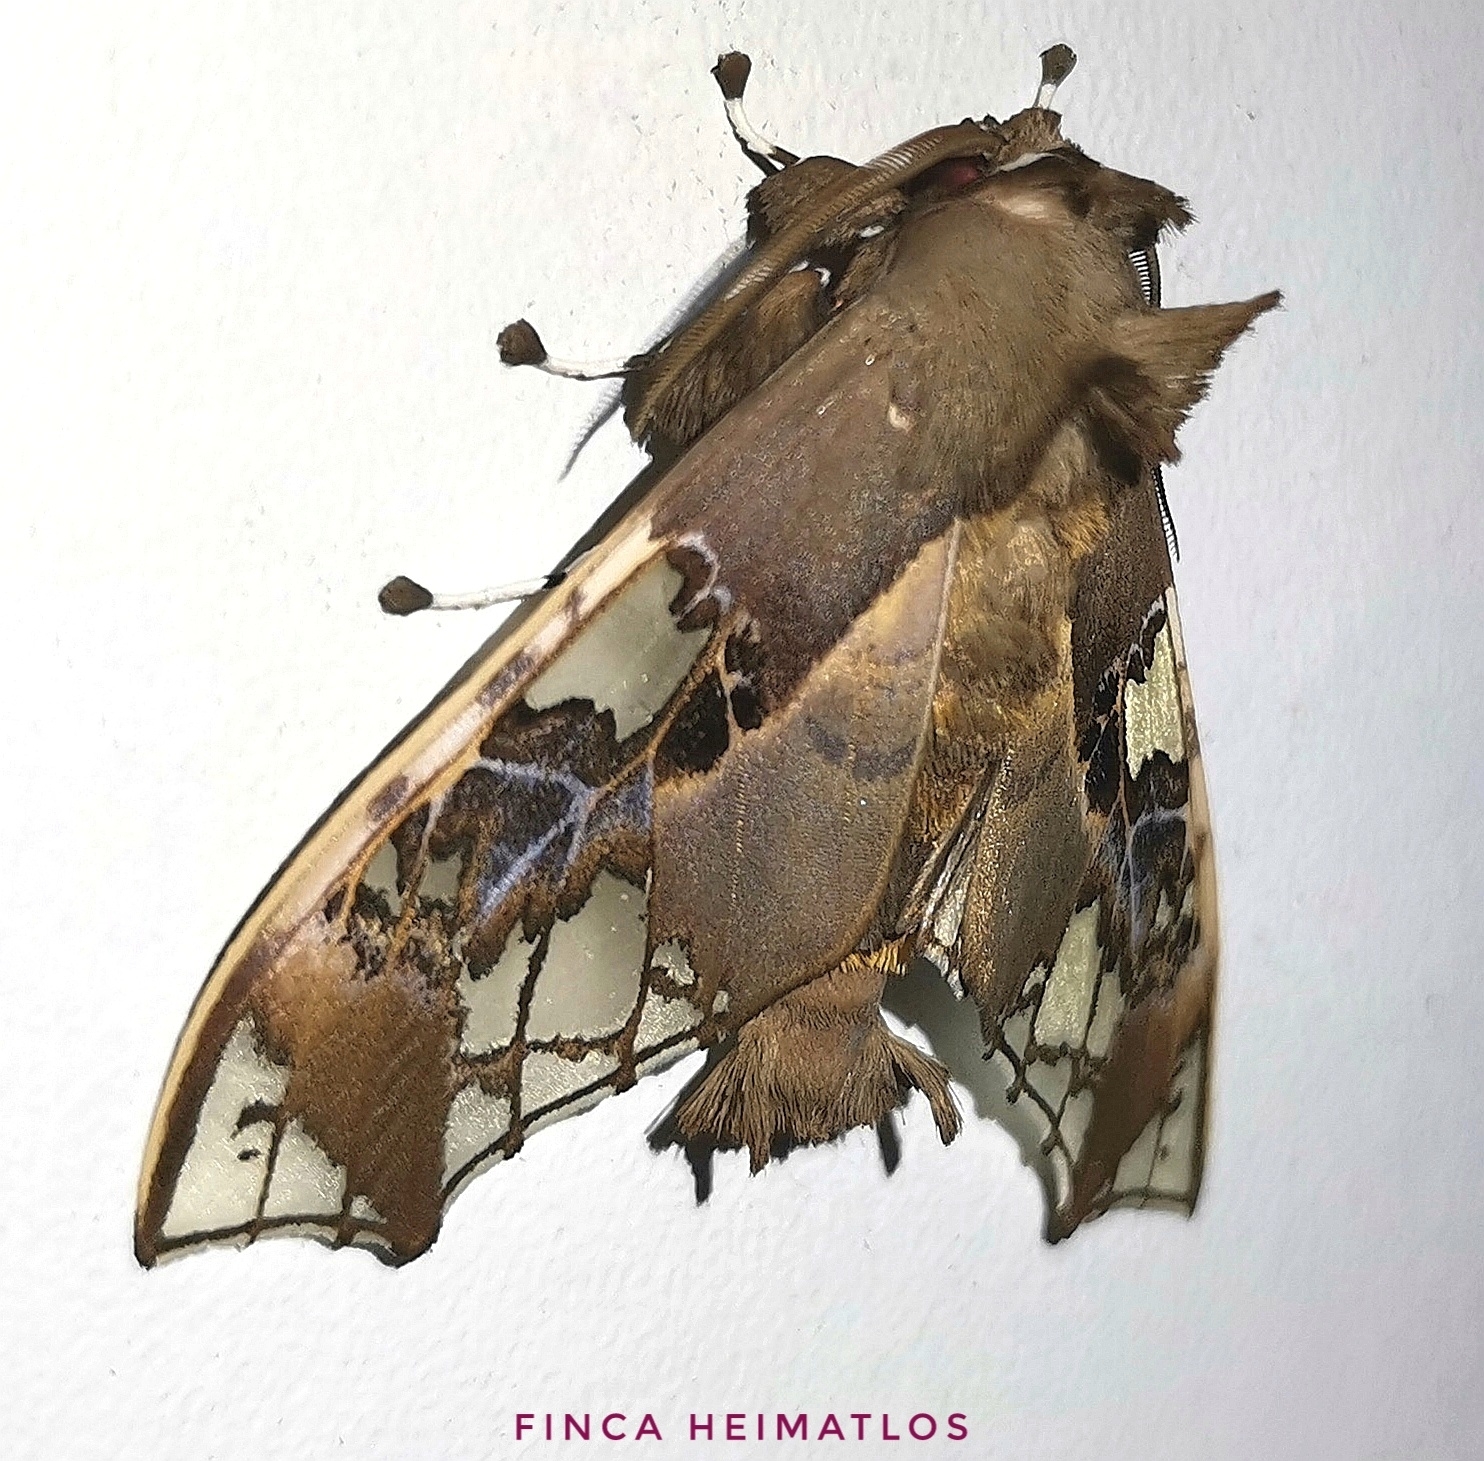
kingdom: Animalia
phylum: Arthropoda
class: Insecta
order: Lepidoptera
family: Erebidae
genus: Parathyris
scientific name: Parathyris cedonulli
